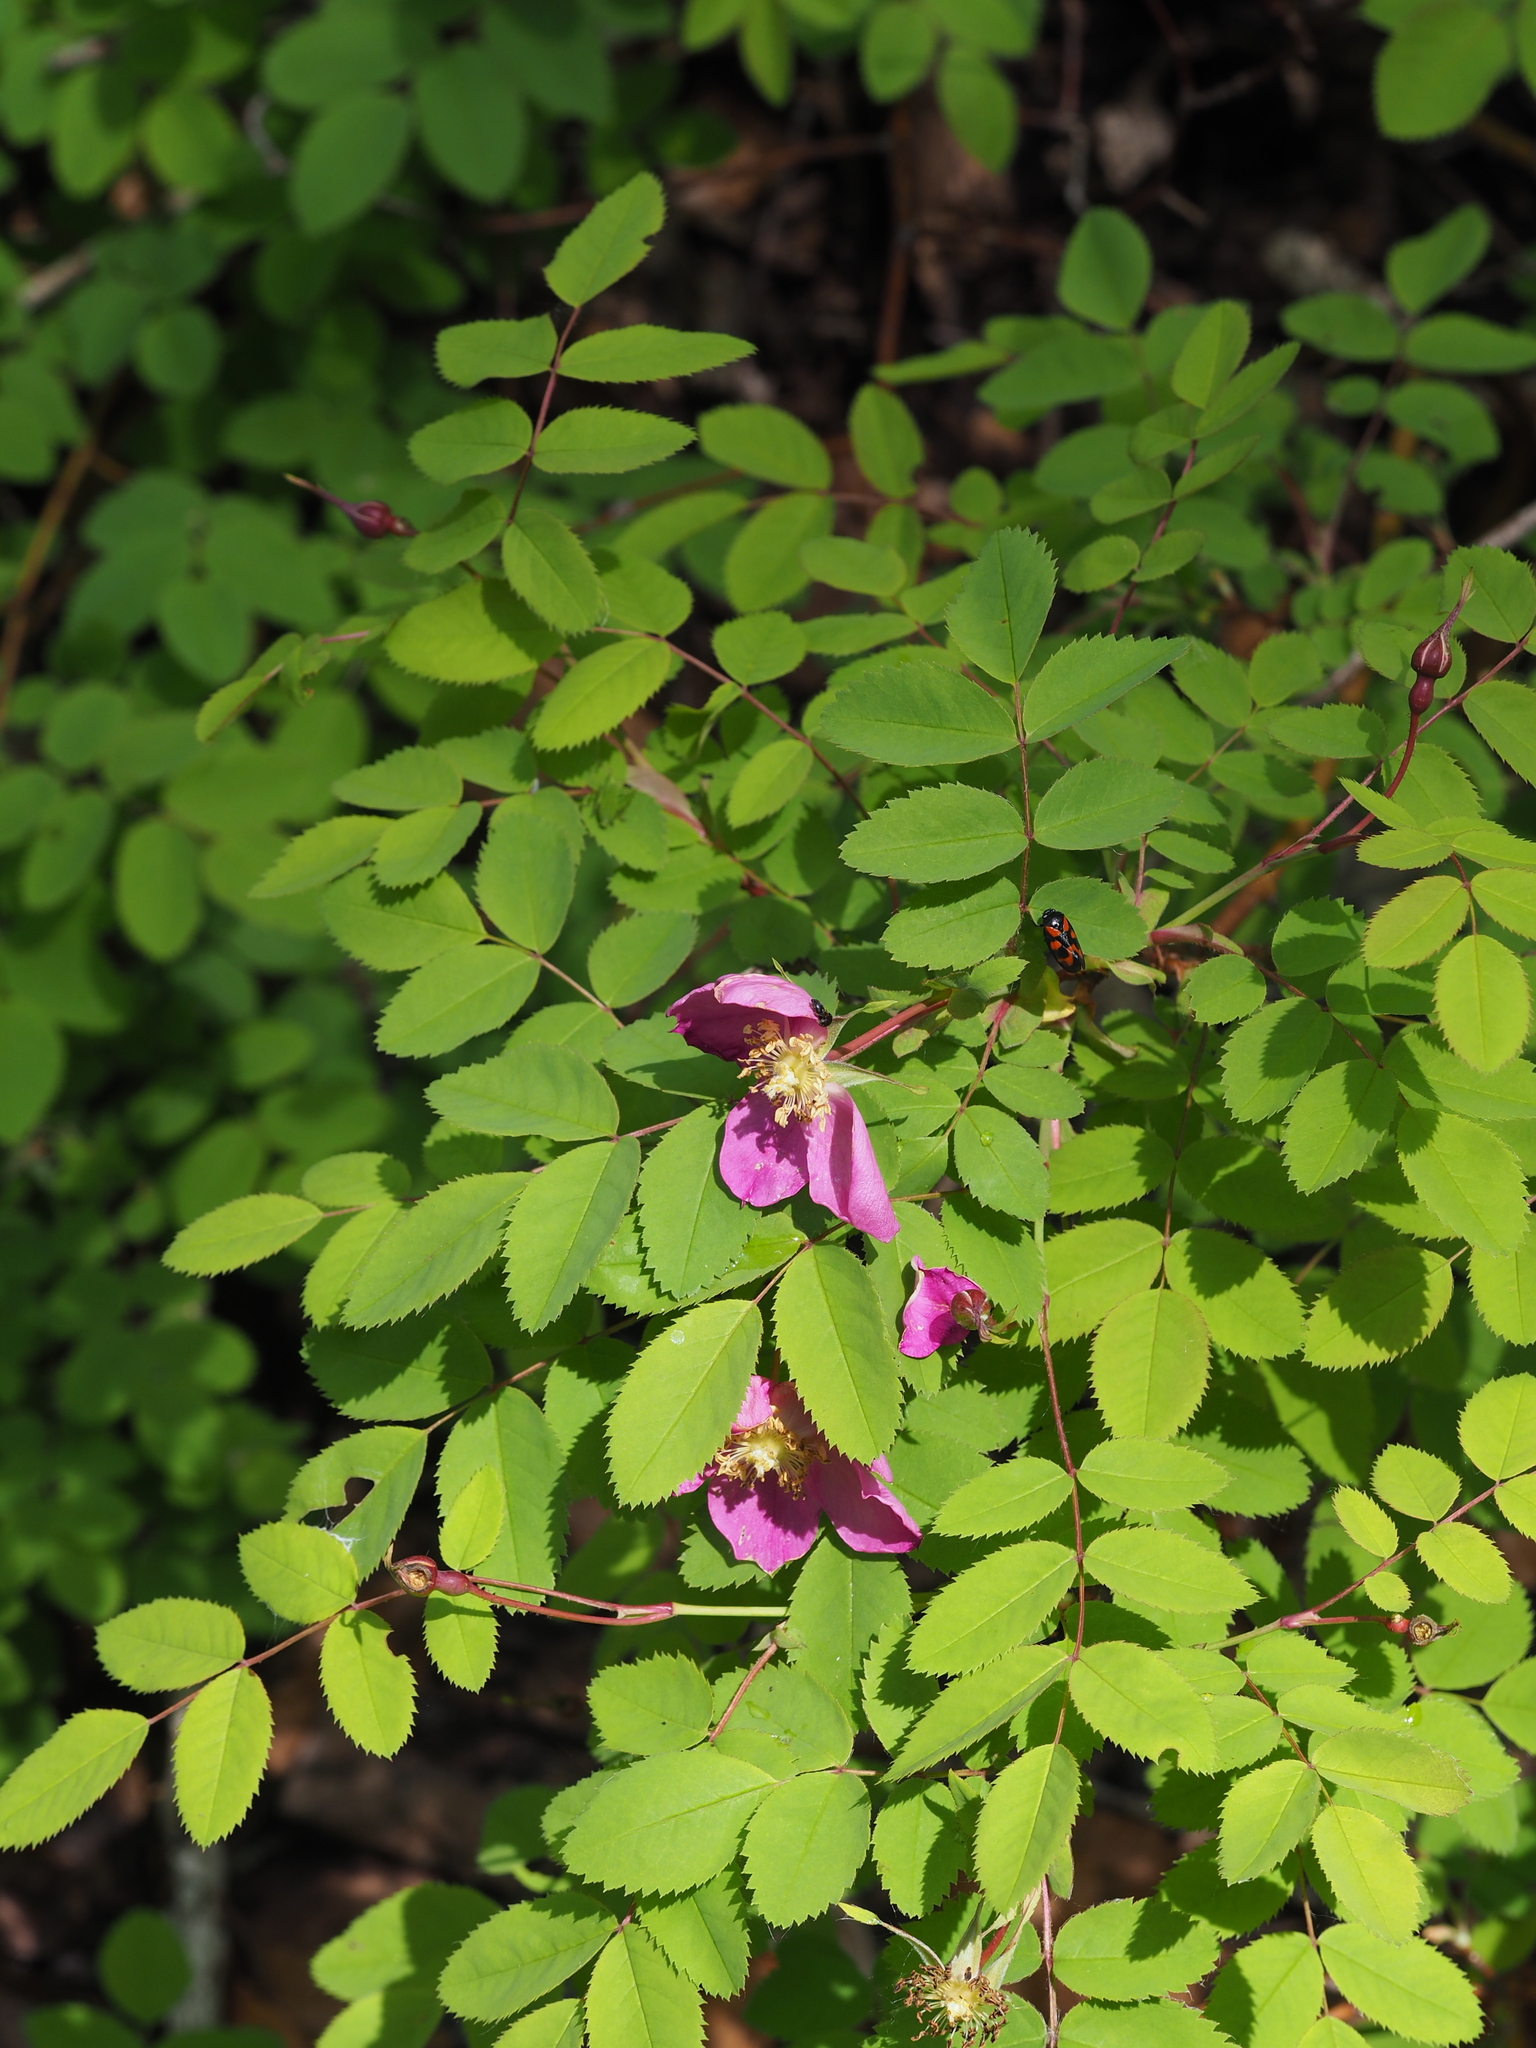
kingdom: Plantae
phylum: Tracheophyta
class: Magnoliopsida
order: Rosales
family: Rosaceae
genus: Rosa
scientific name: Rosa pendulina
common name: Alpine rose
